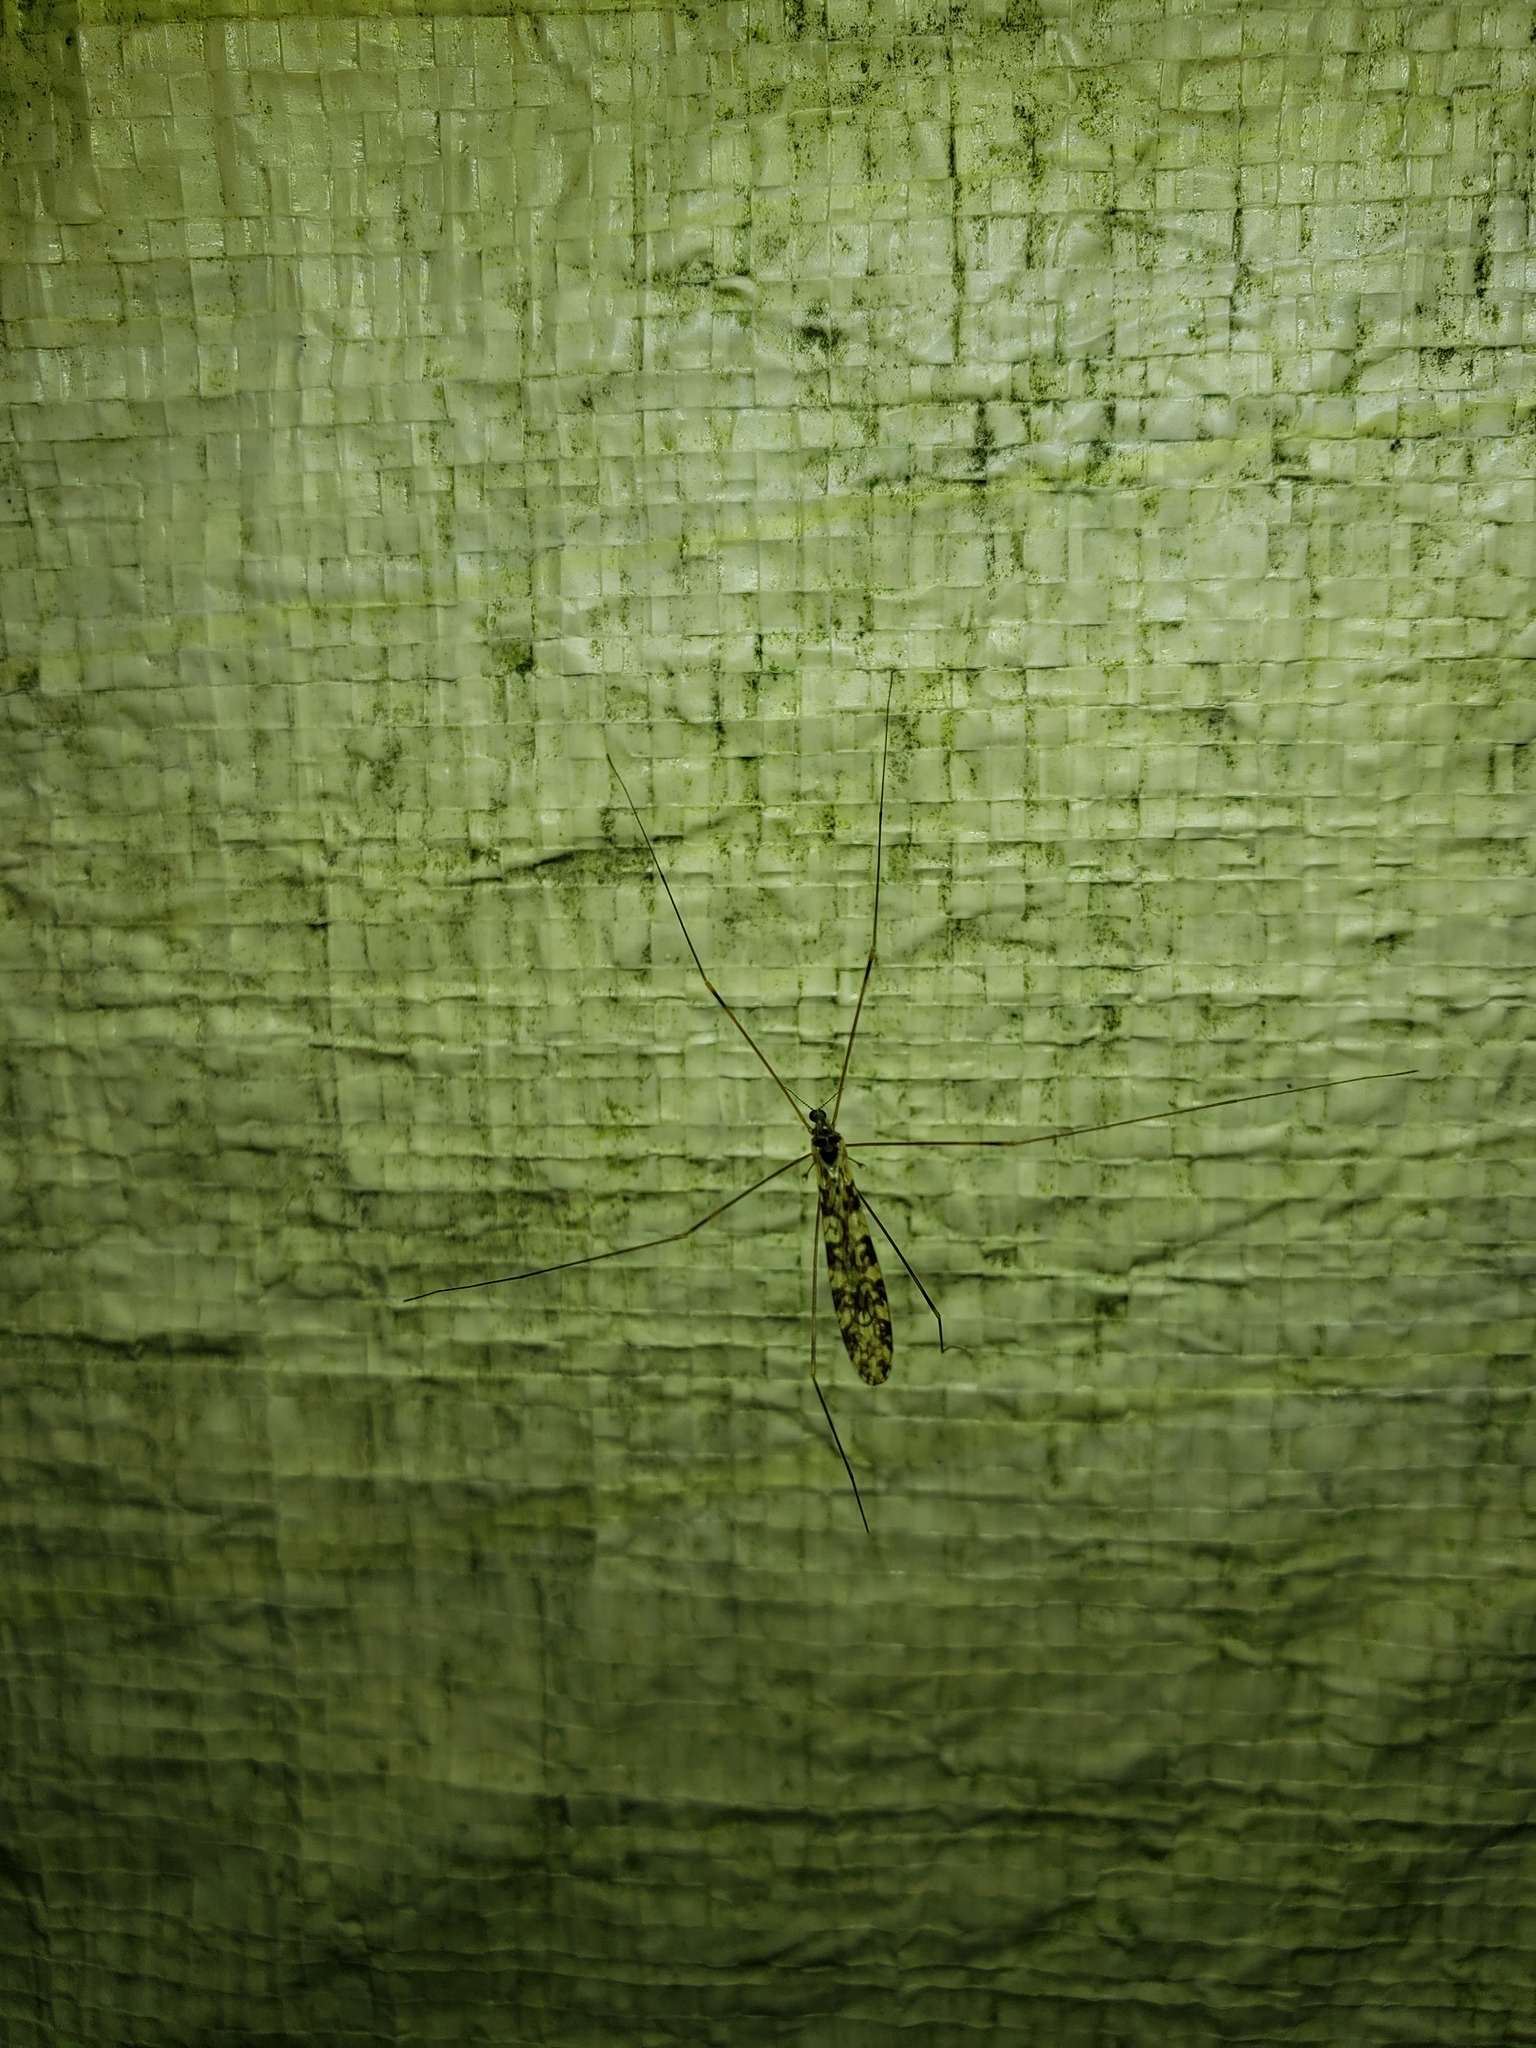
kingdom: Animalia
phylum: Arthropoda
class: Insecta
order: Diptera
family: Limoniidae
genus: Limonia
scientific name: Limonia annulata
